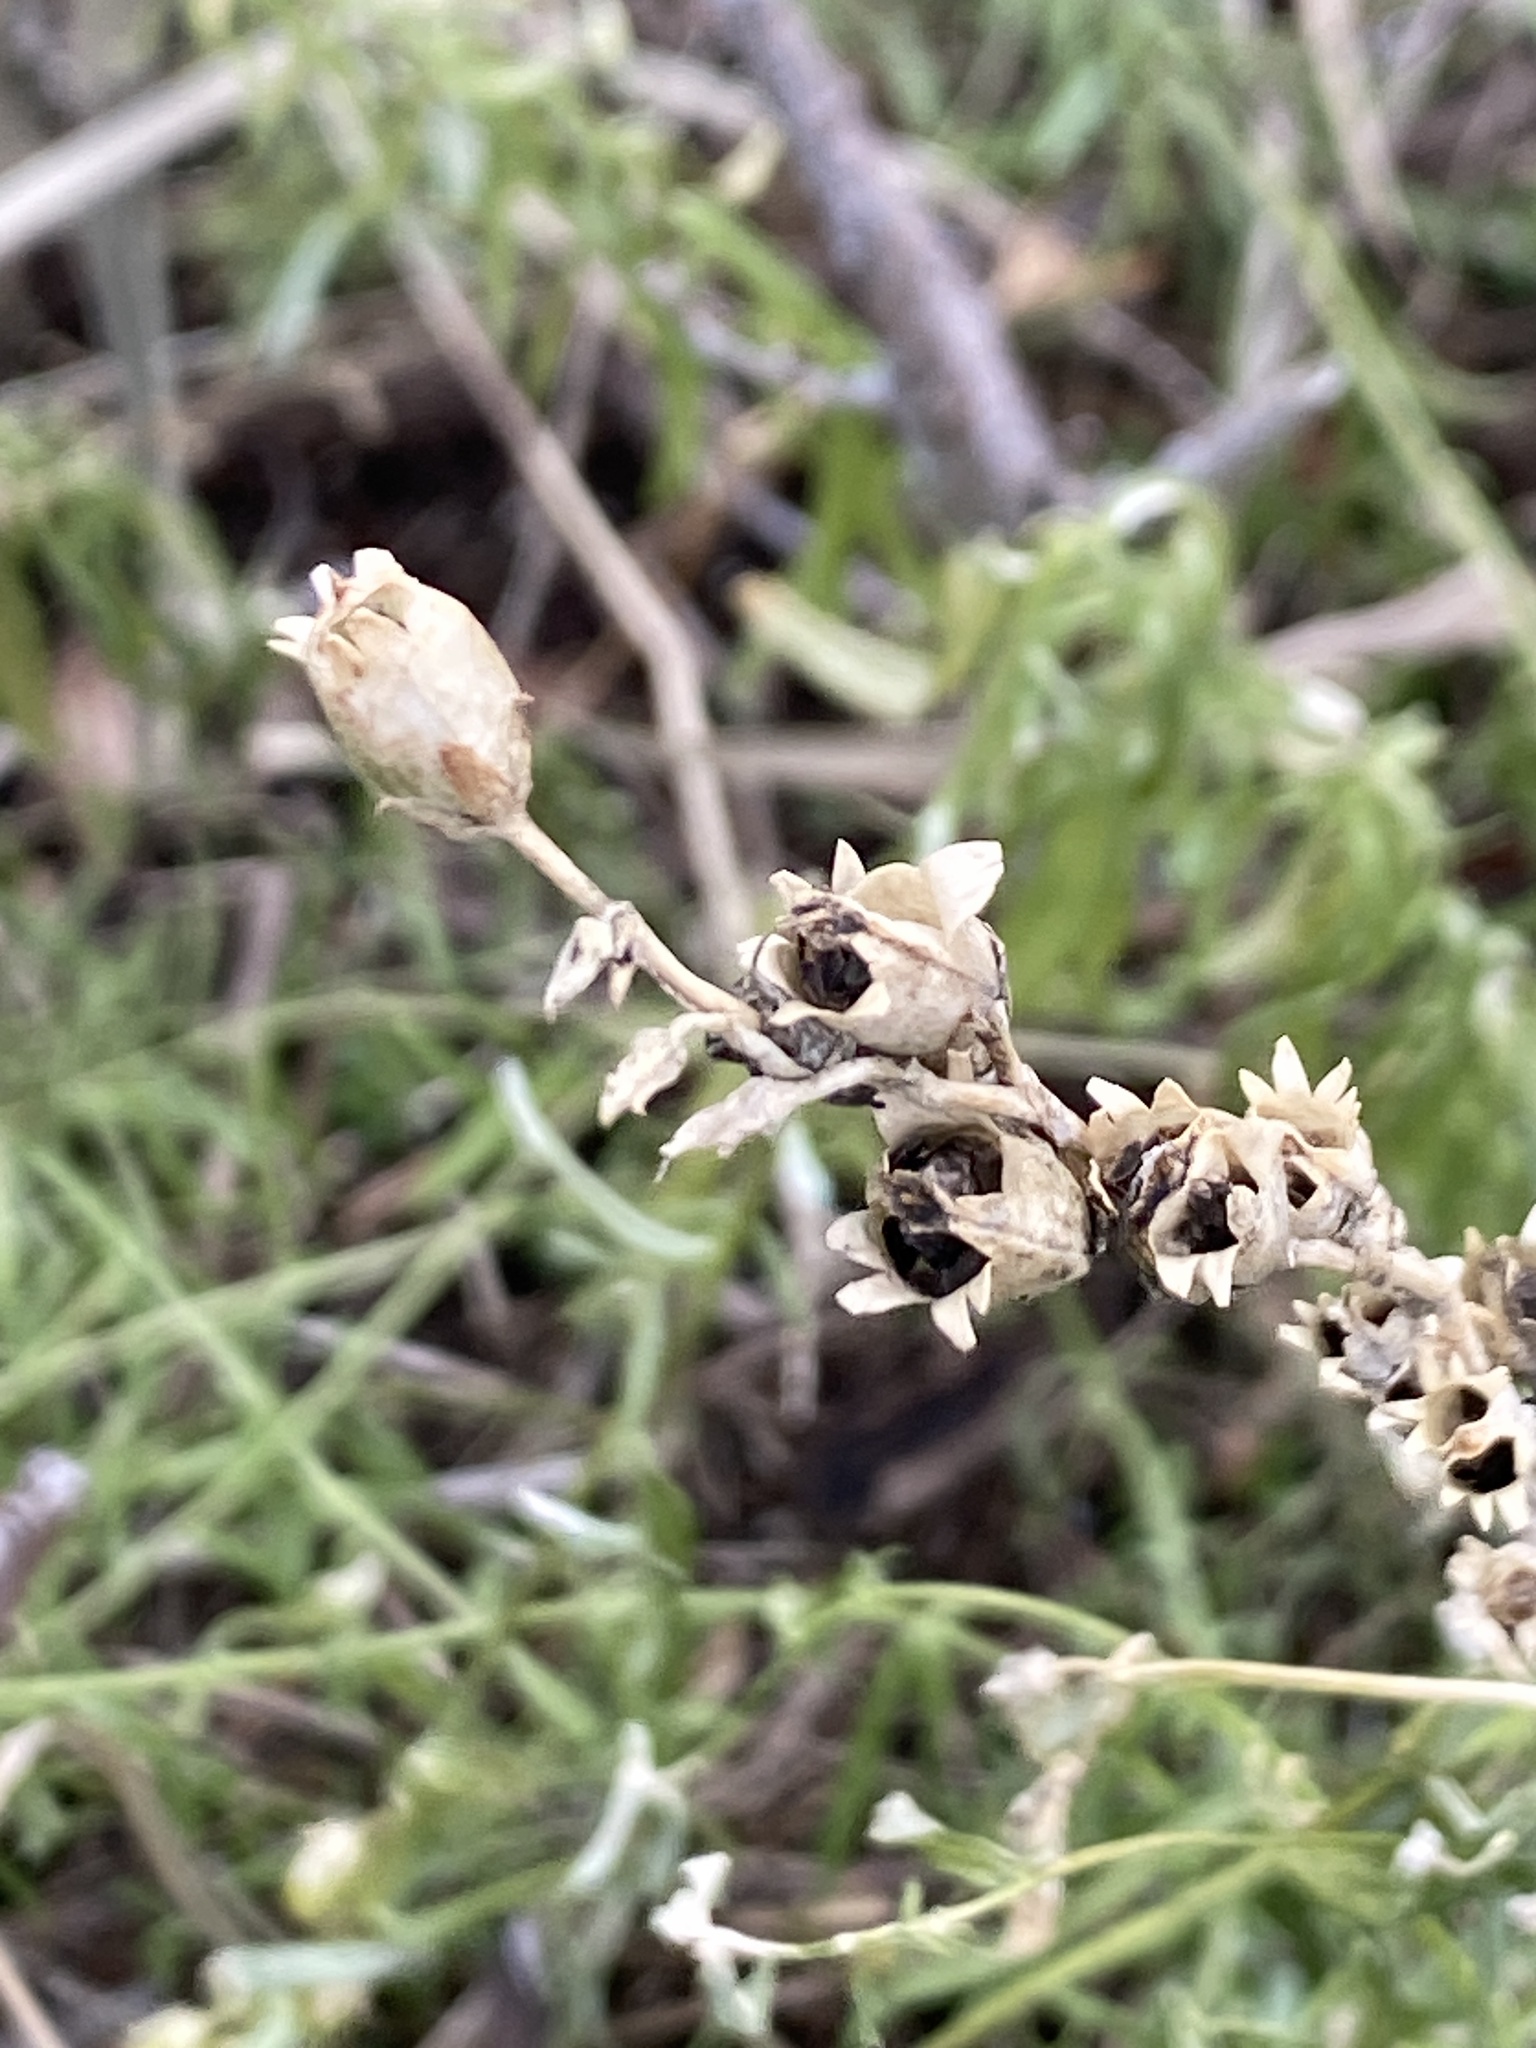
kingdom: Plantae
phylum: Tracheophyta
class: Magnoliopsida
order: Lamiales
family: Plantaginaceae
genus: Linaria
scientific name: Linaria vulgaris
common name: Butter and eggs
